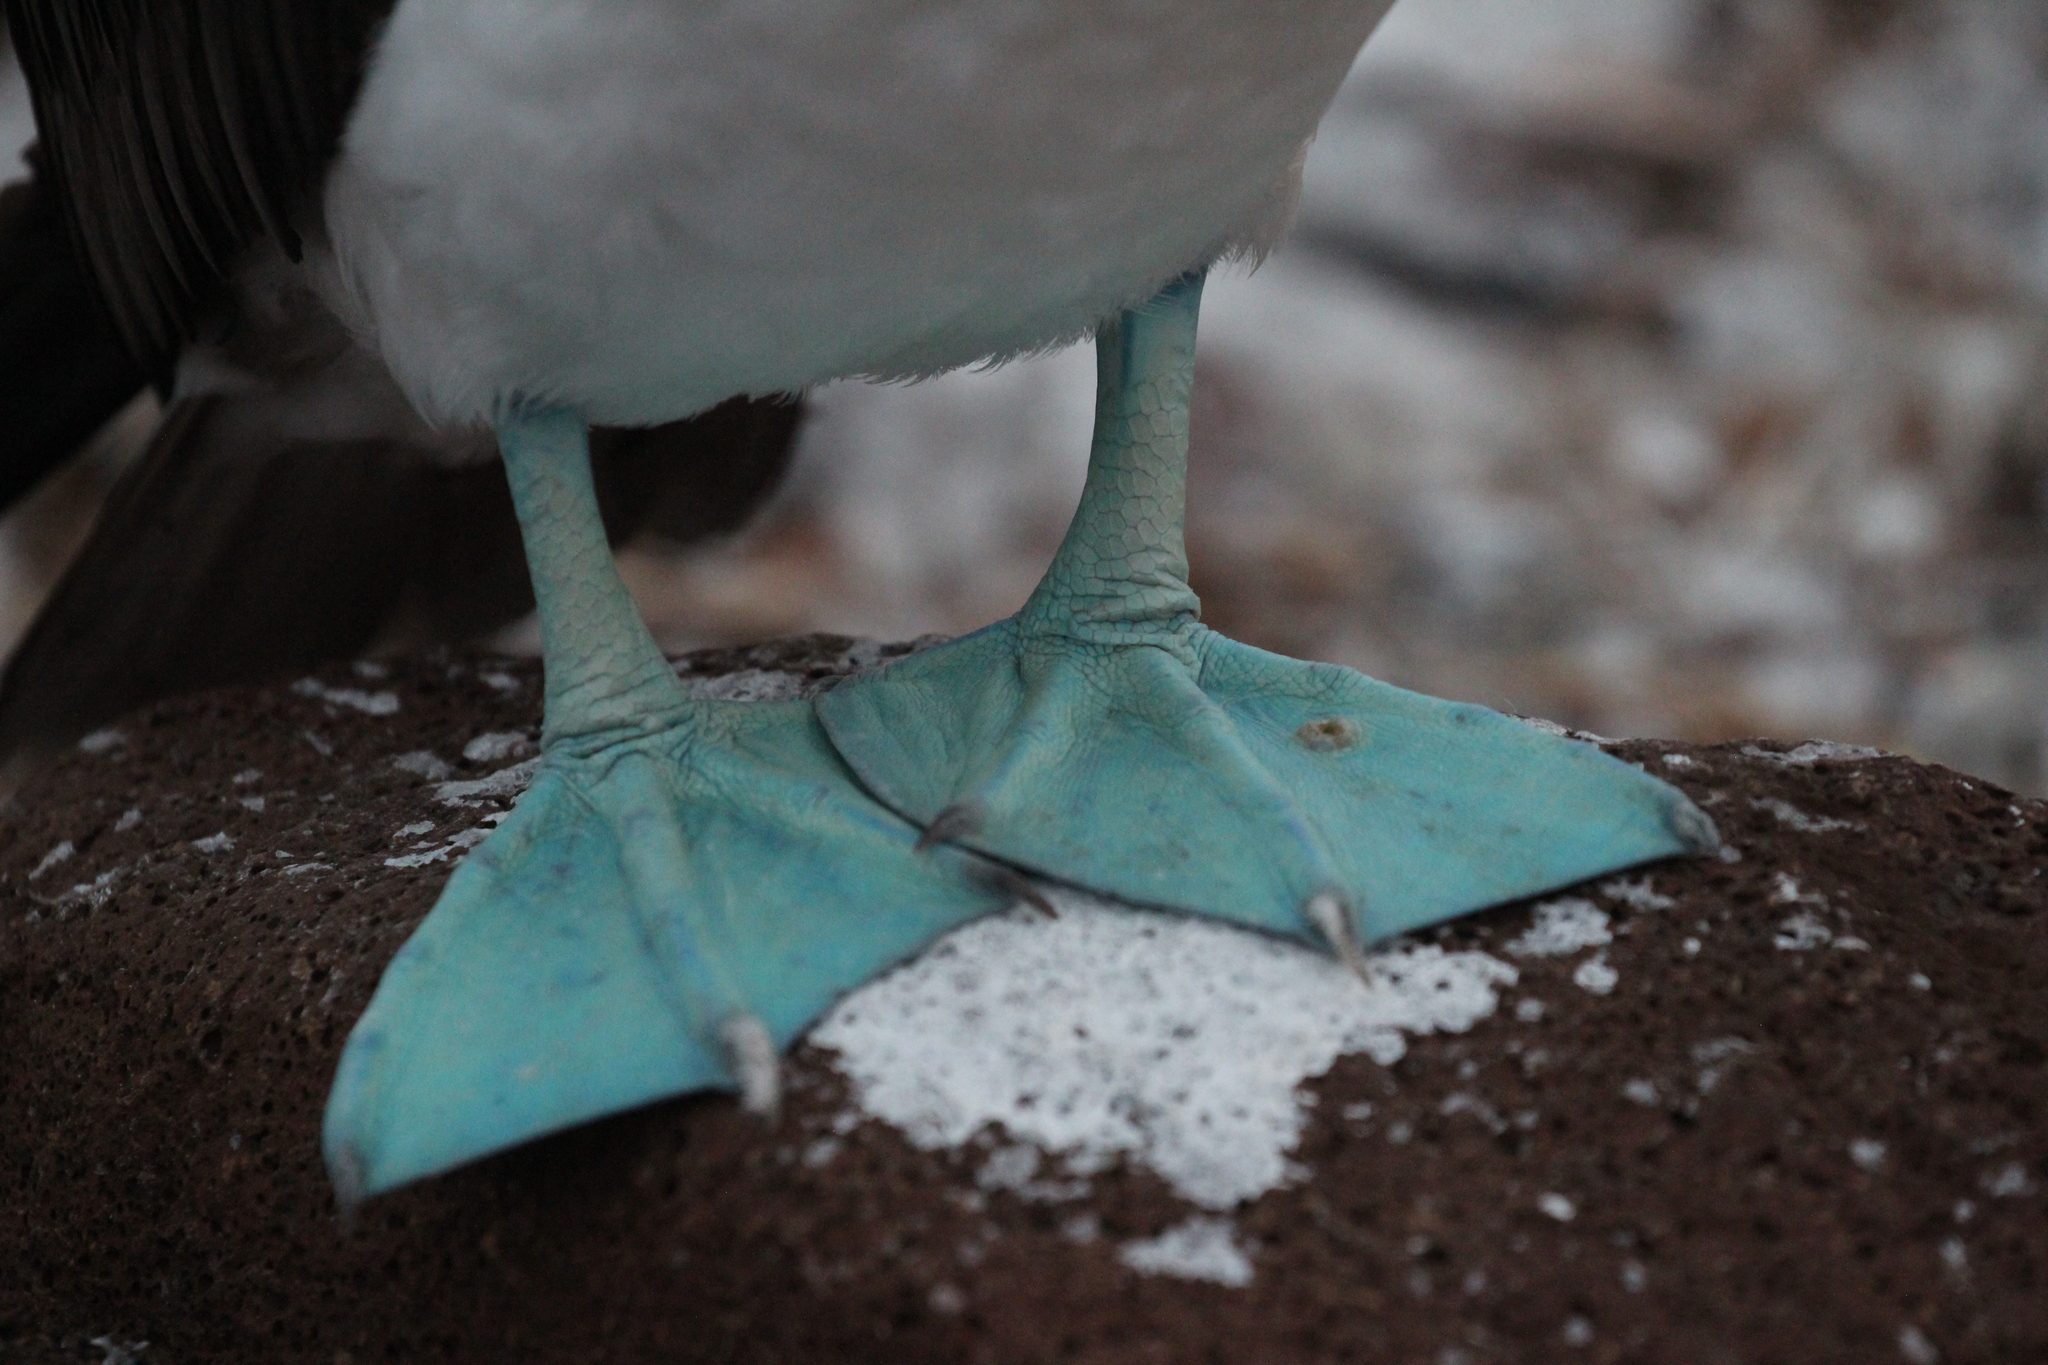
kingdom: Animalia
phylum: Chordata
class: Aves
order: Suliformes
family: Sulidae
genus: Sula
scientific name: Sula nebouxii
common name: Blue-footed booby
